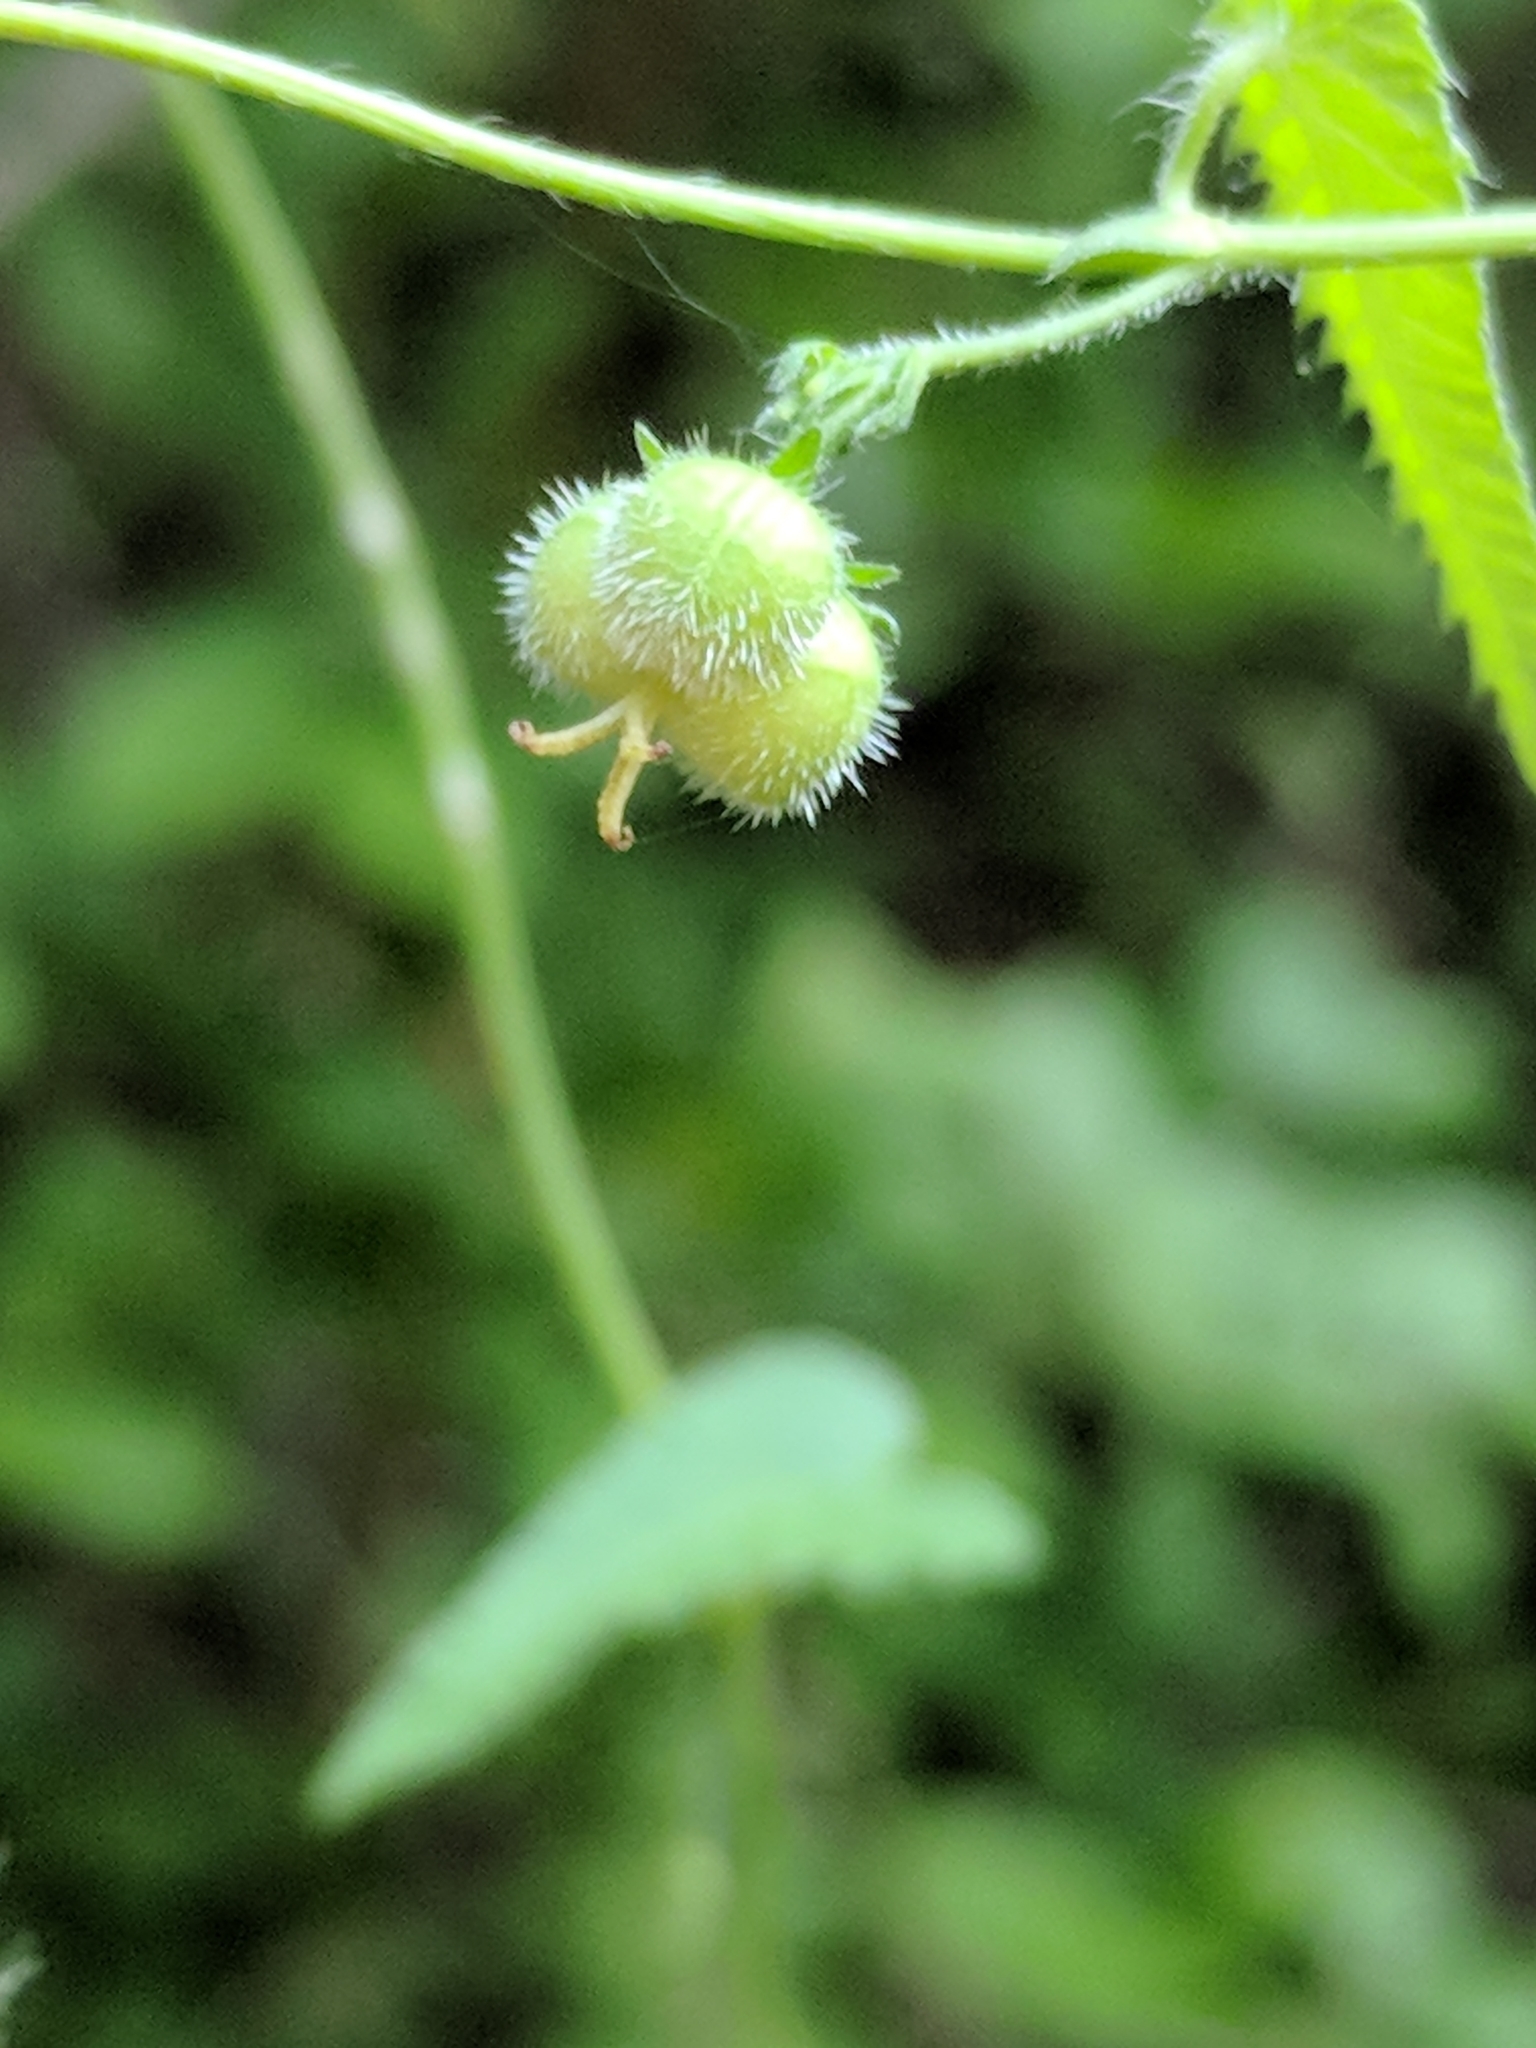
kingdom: Plantae
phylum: Tracheophyta
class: Magnoliopsida
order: Malpighiales
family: Euphorbiaceae
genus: Tragia
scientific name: Tragia brevispica
